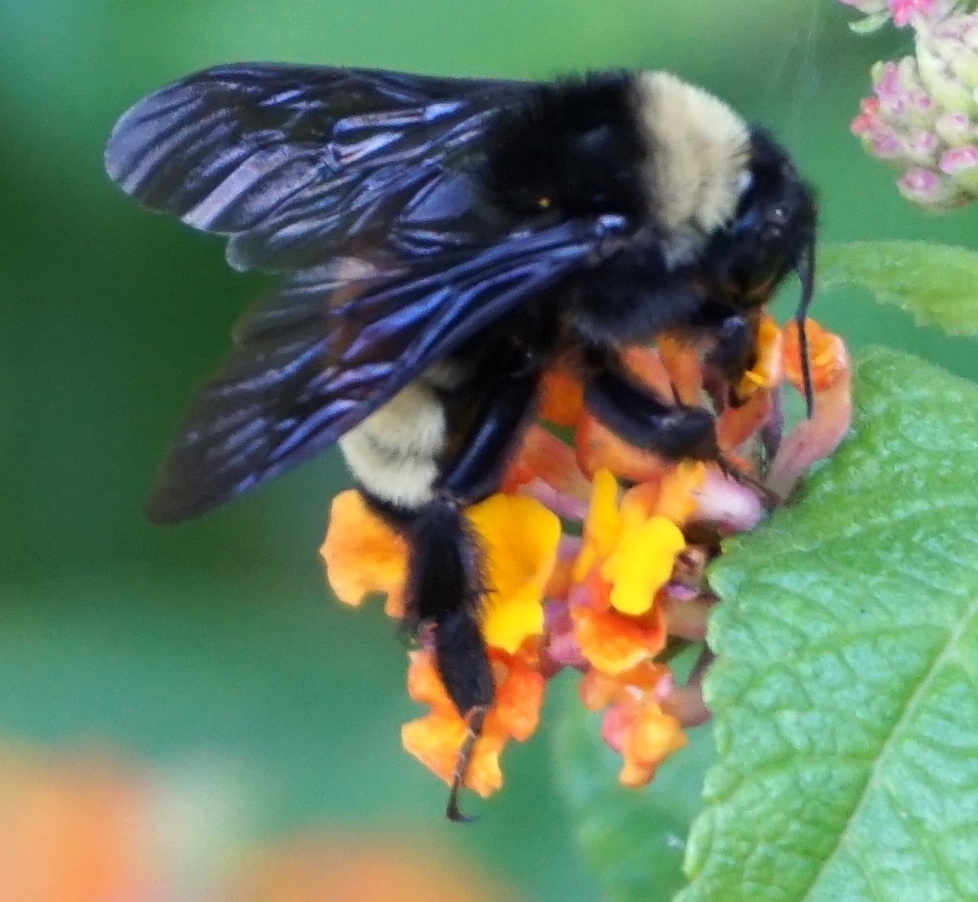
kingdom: Animalia
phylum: Arthropoda
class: Insecta
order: Hymenoptera
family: Apidae
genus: Bombus
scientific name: Bombus pensylvanicus
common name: Bumble bee
